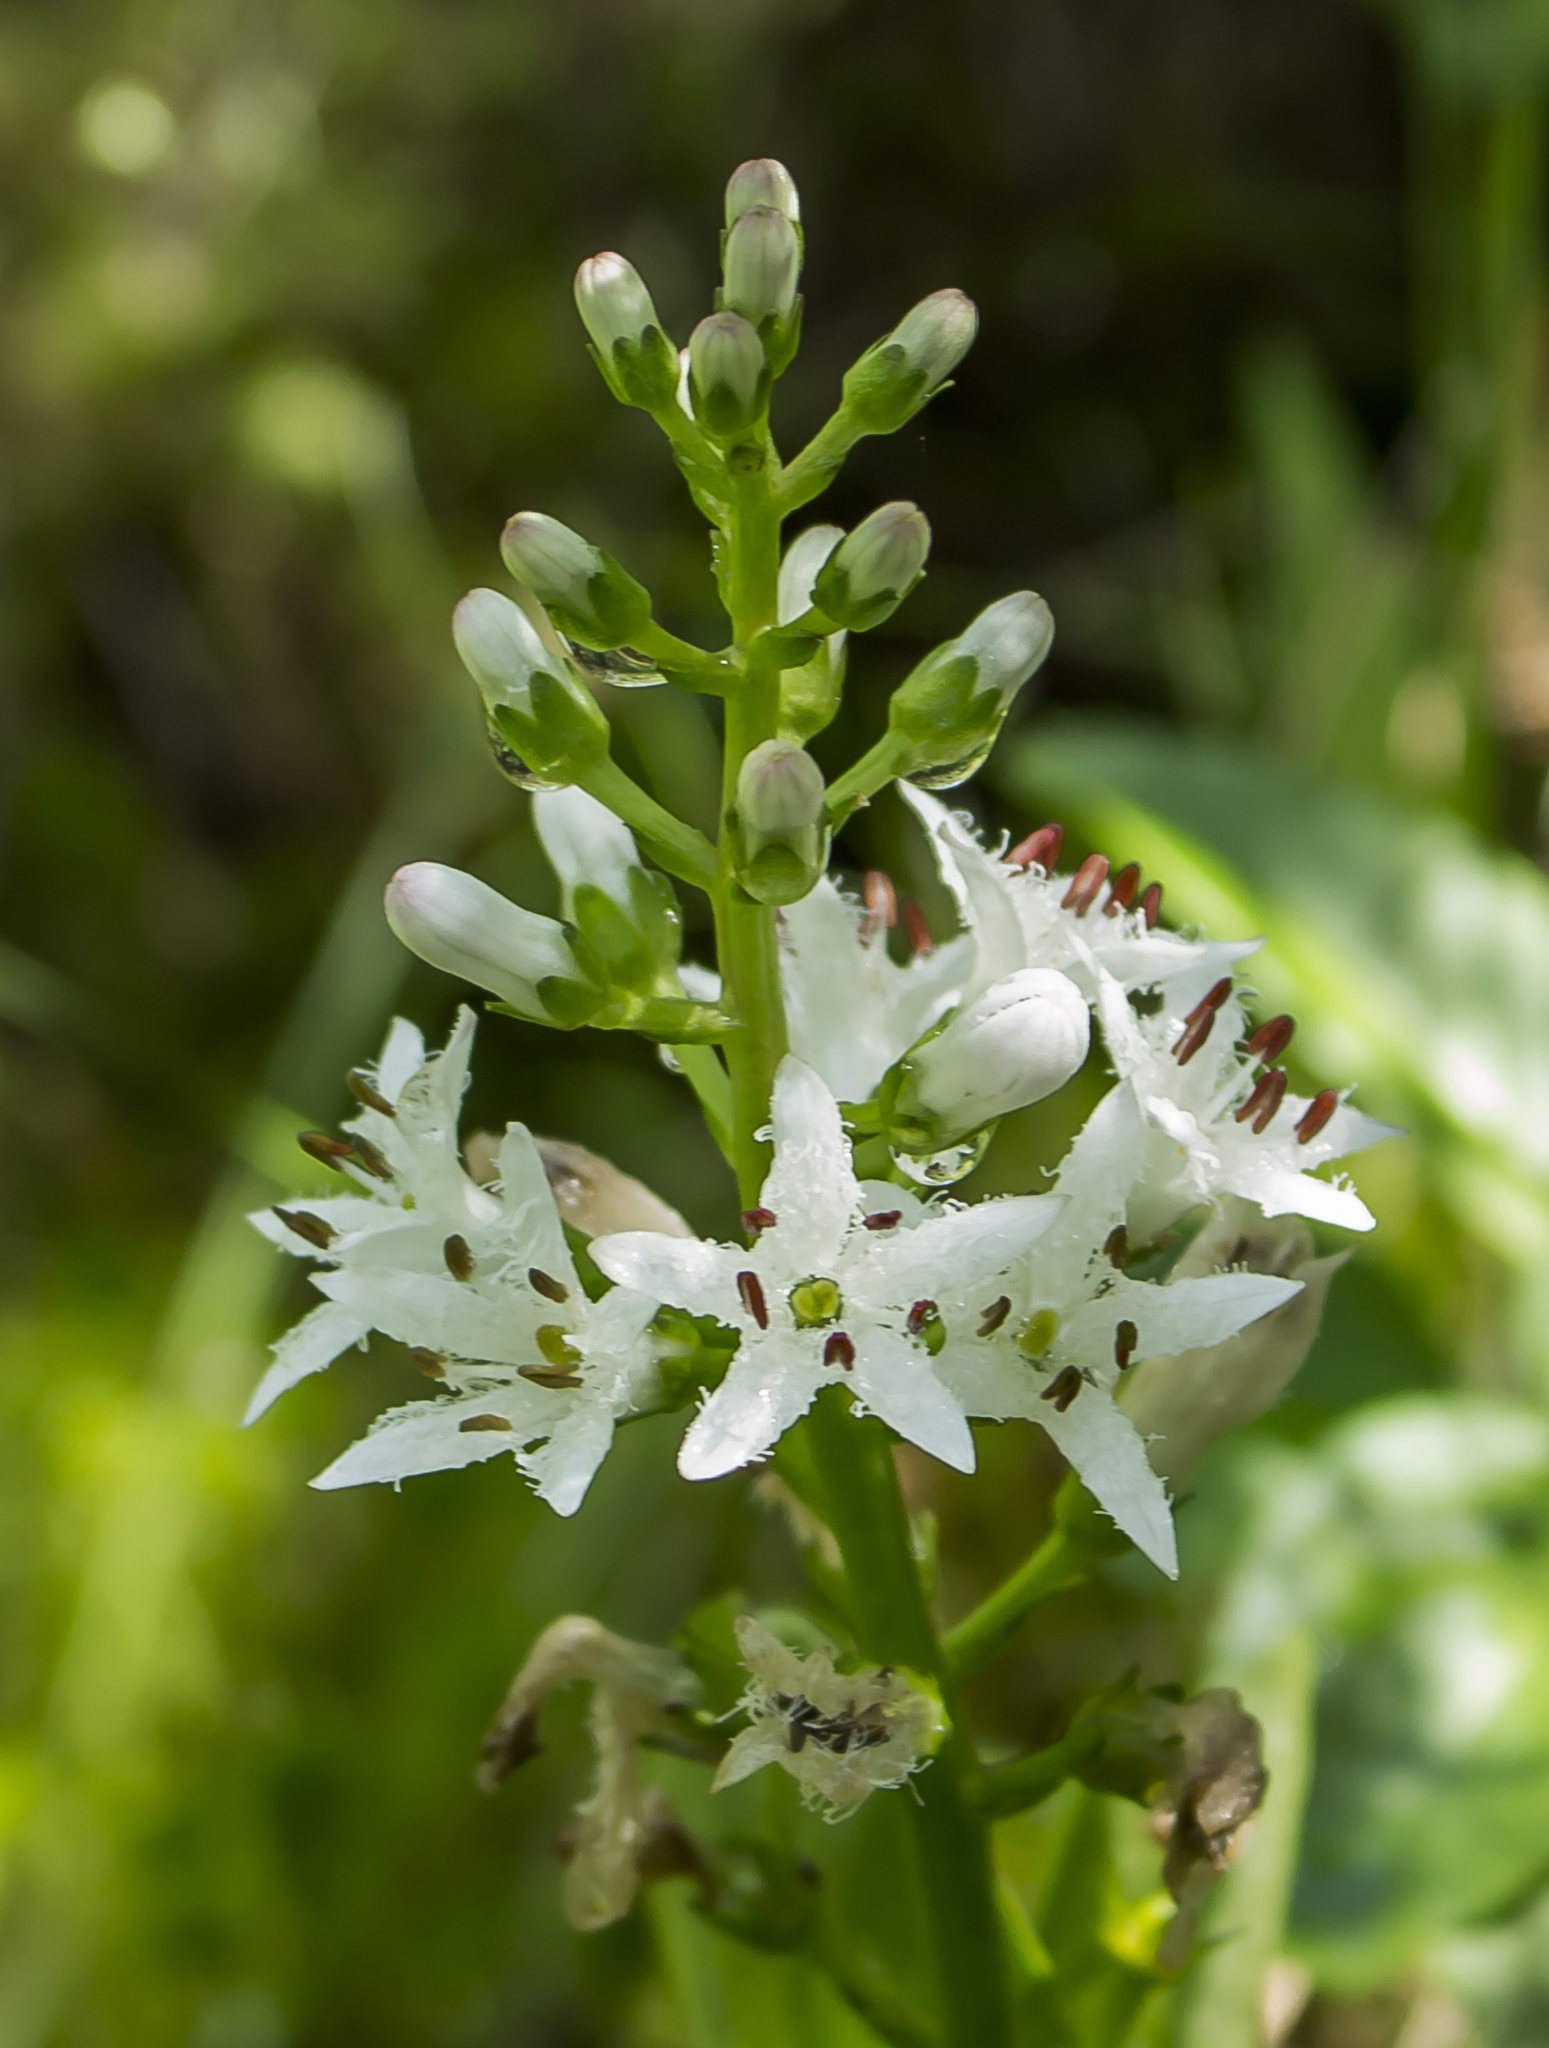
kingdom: Plantae
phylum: Tracheophyta
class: Magnoliopsida
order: Asterales
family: Menyanthaceae
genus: Menyanthes
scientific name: Menyanthes trifoliata
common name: Bogbean
